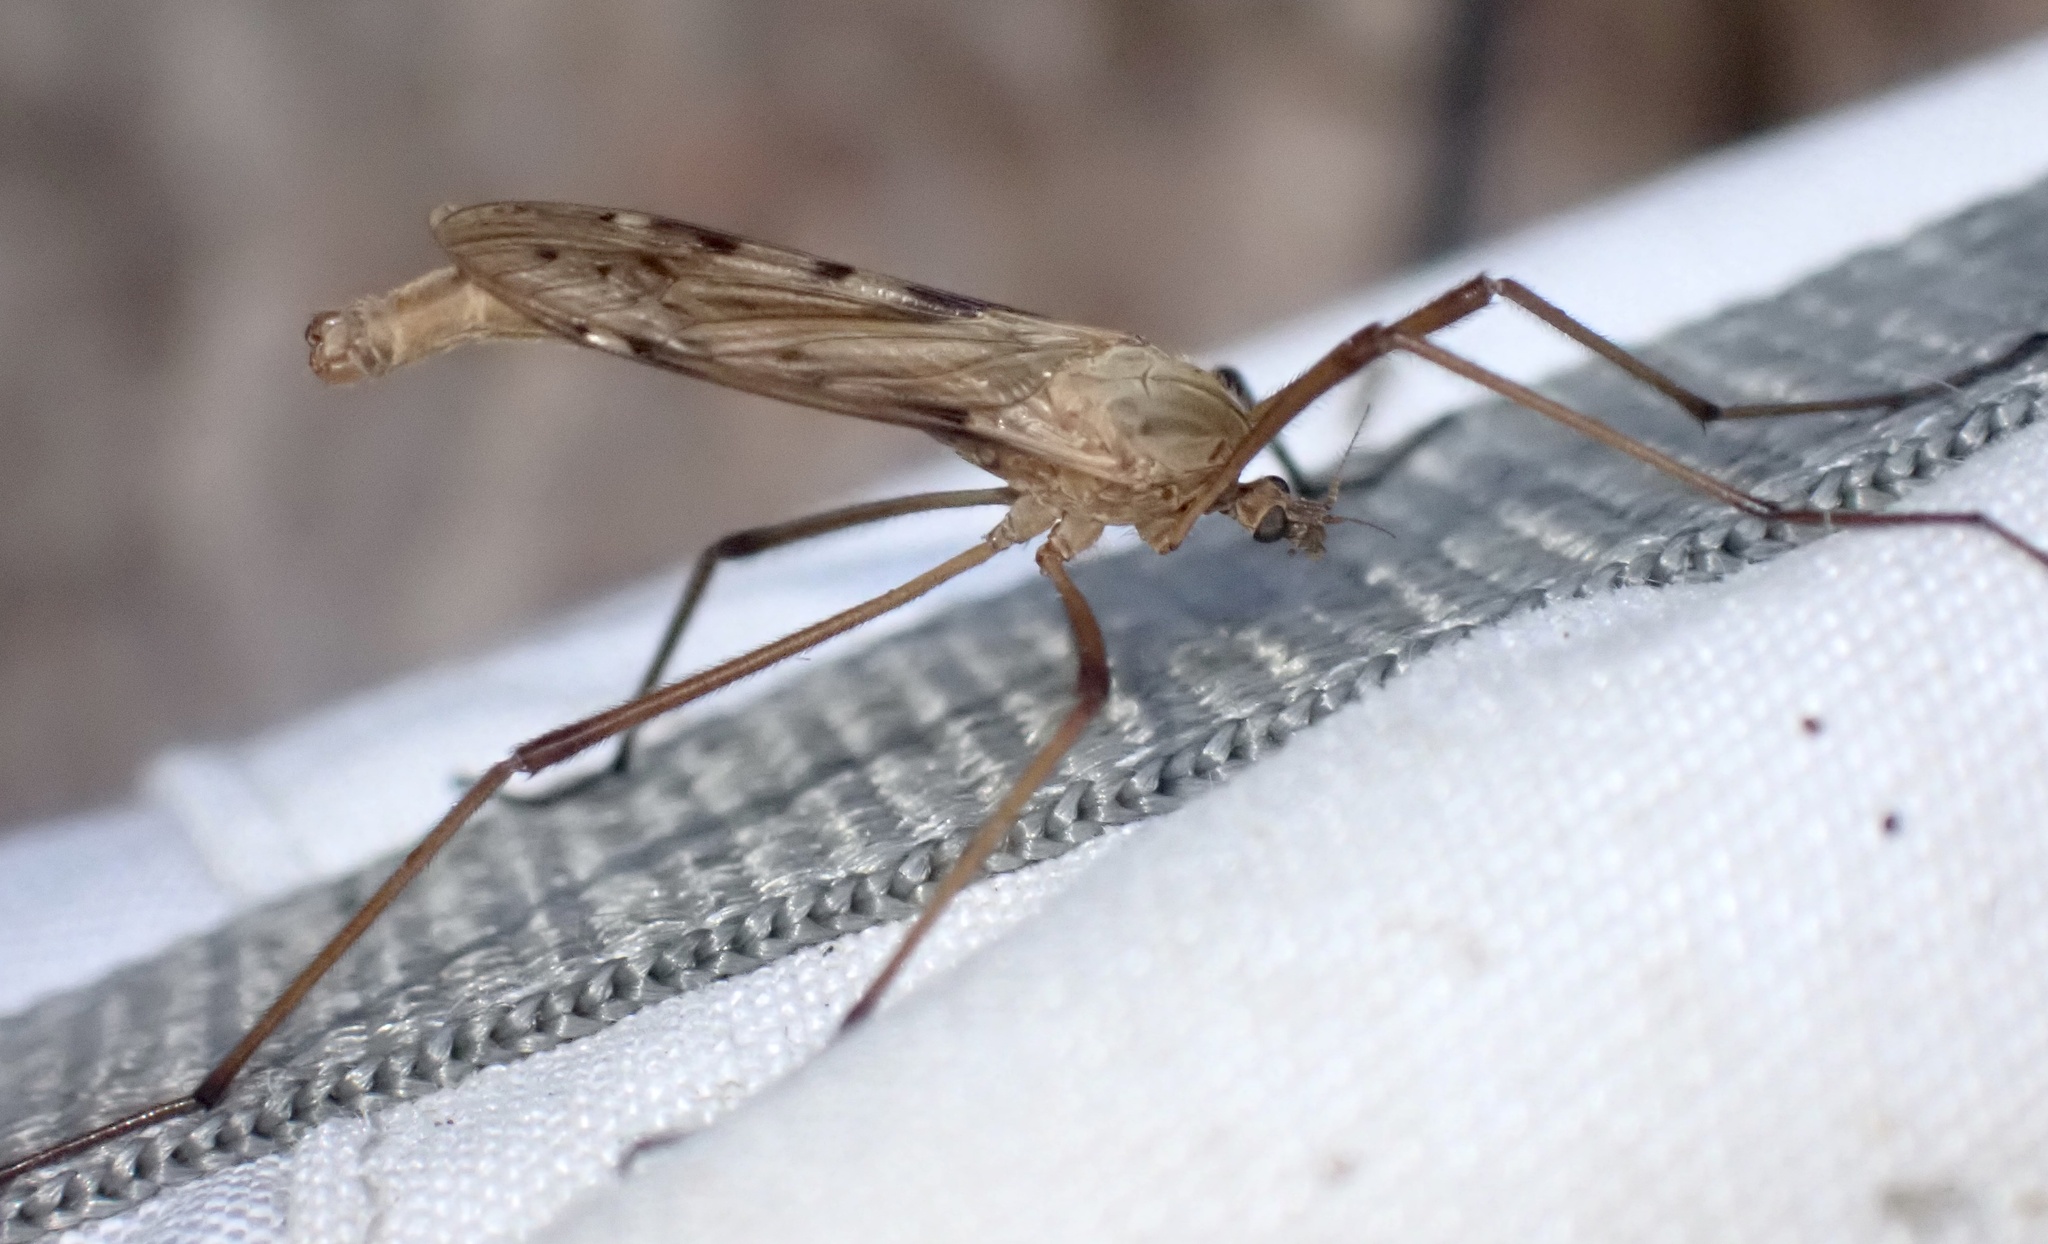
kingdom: Animalia
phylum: Arthropoda
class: Insecta
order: Diptera
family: Limoniidae
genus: Eutonia
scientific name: Eutonia barbipes
